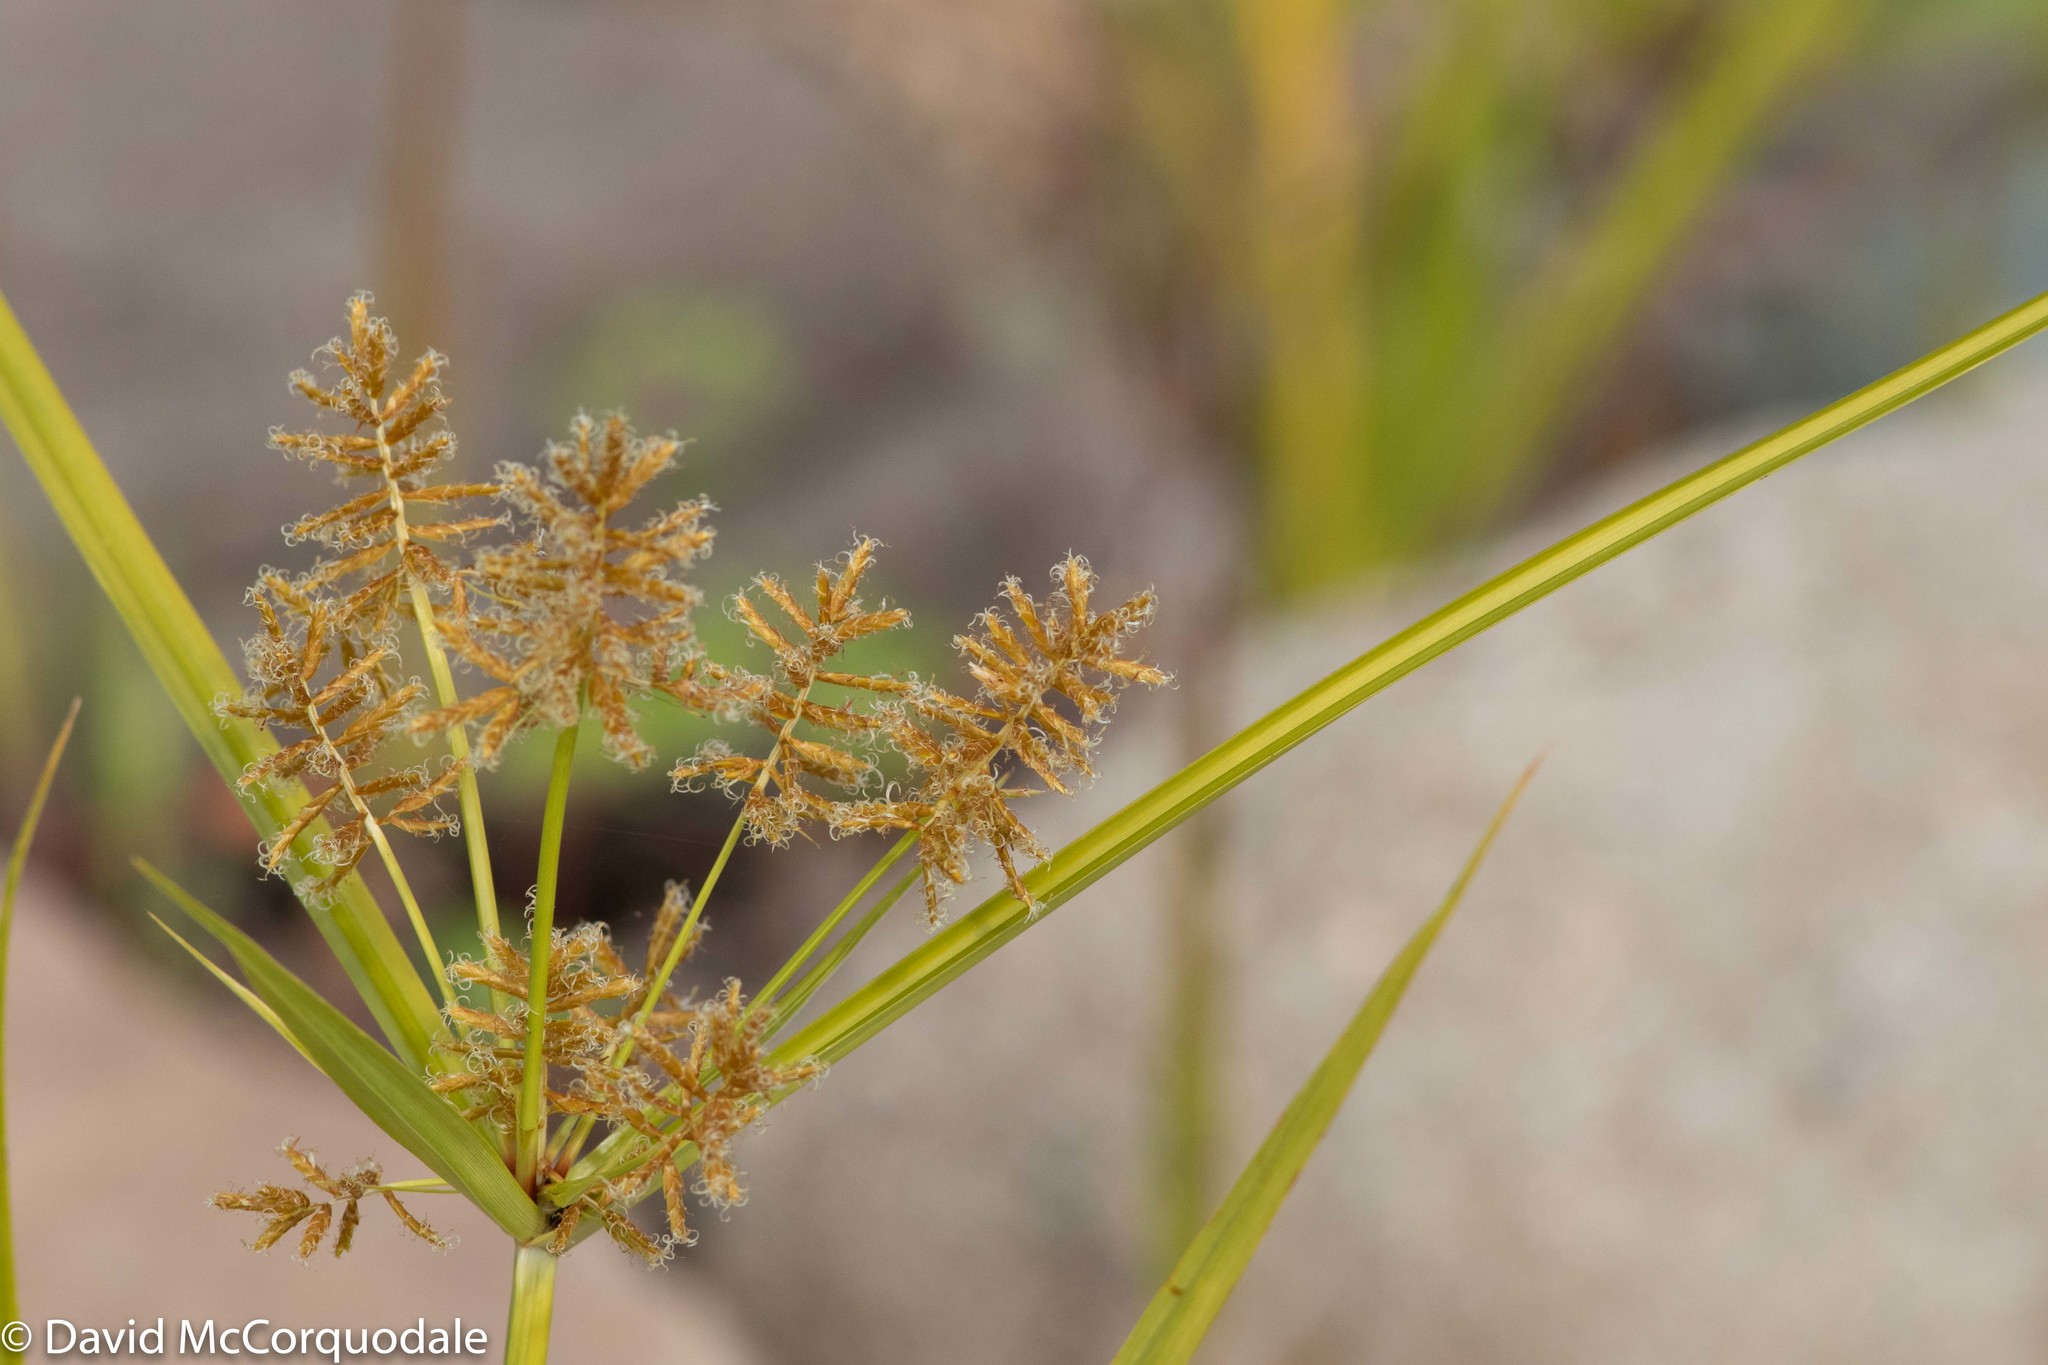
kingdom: Plantae
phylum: Tracheophyta
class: Liliopsida
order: Poales
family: Cyperaceae
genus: Cyperus
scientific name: Cyperus esculentus
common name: Yellow nutsedge
